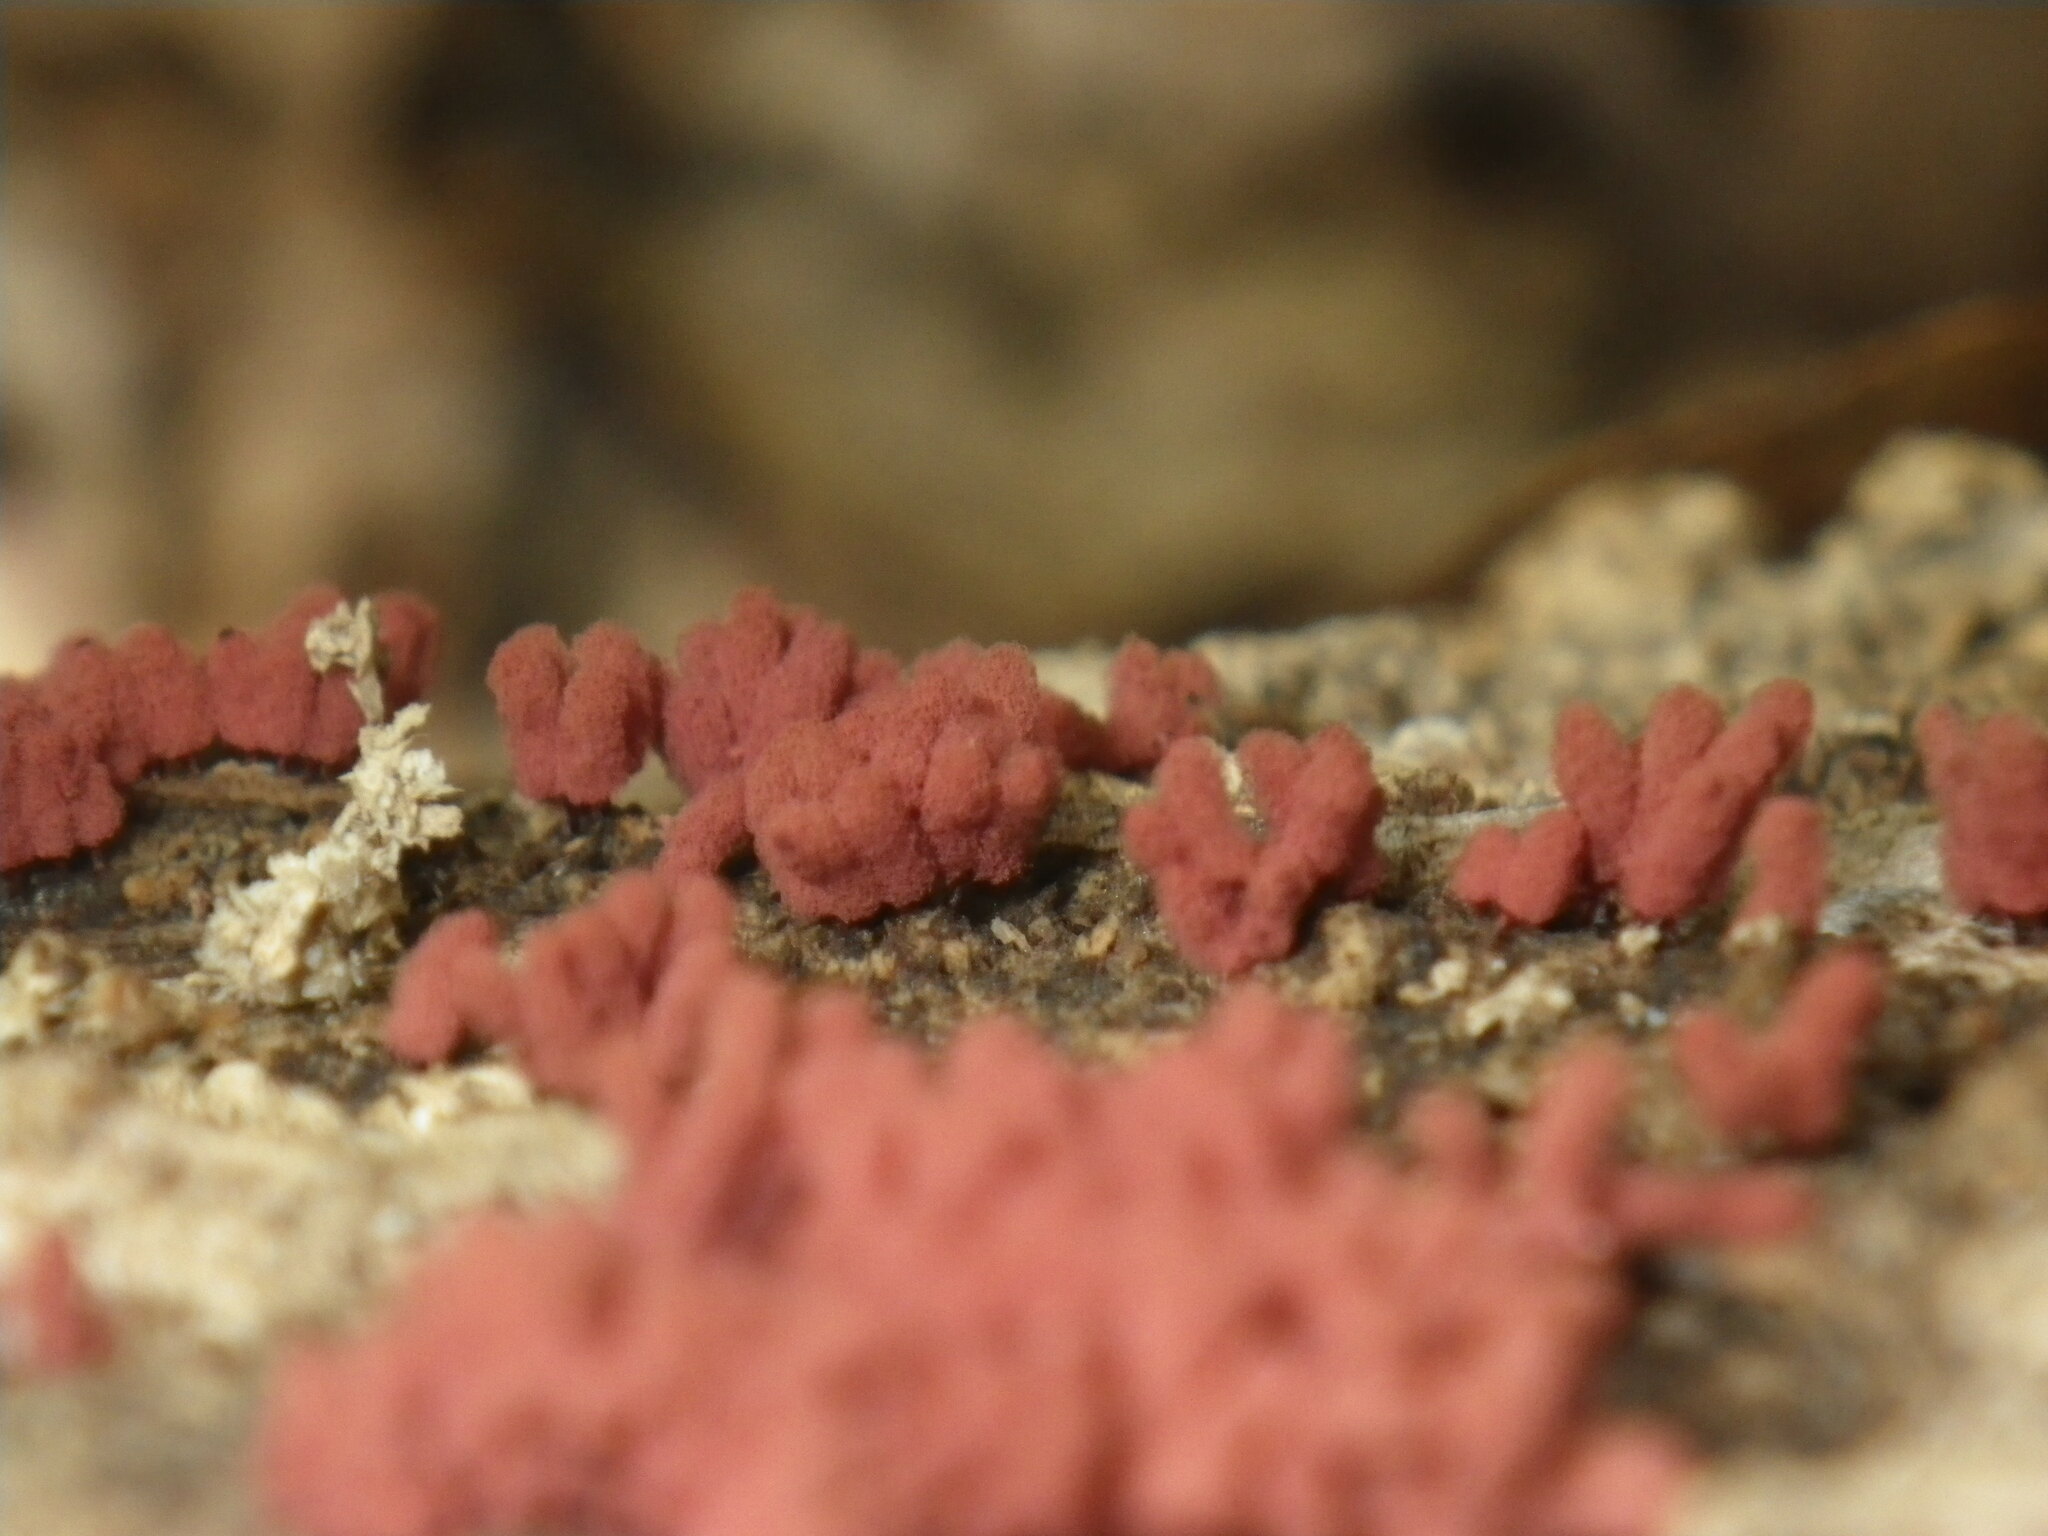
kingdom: Protozoa
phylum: Mycetozoa
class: Myxomycetes
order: Trichiales
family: Arcyriaceae
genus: Arcyria
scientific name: Arcyria denudata
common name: Carnival candy slime mold
